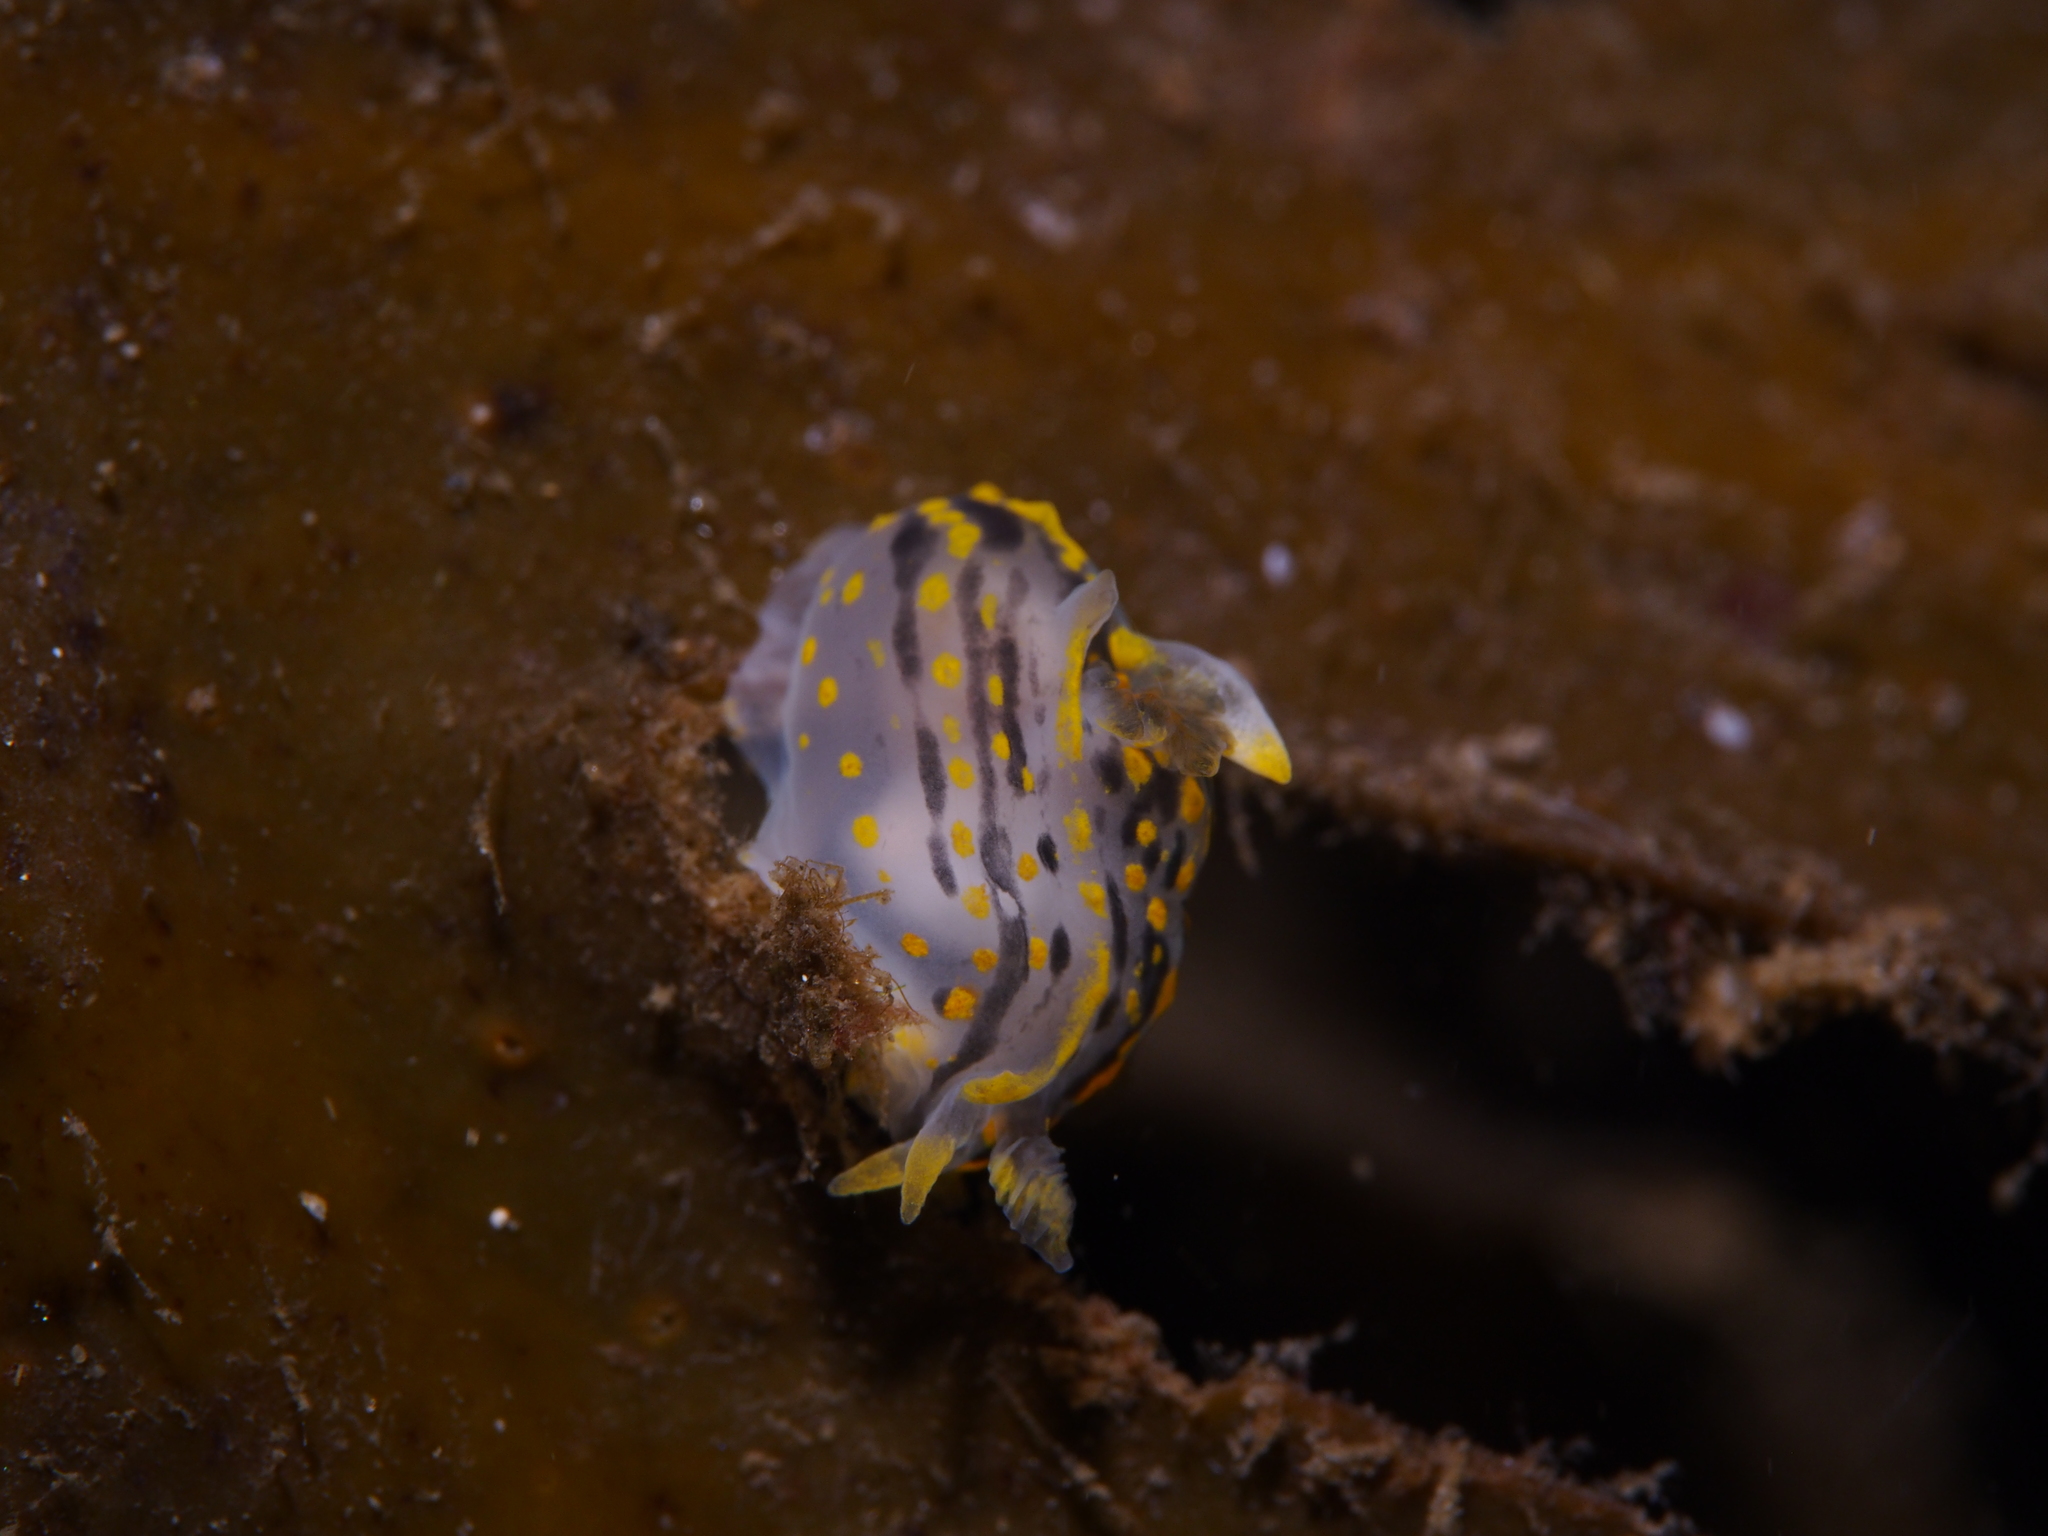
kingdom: Animalia
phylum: Mollusca
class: Gastropoda
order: Nudibranchia
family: Polyceridae
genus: Polycera
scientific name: Polycera quadrilineata
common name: Four-striped polycera
